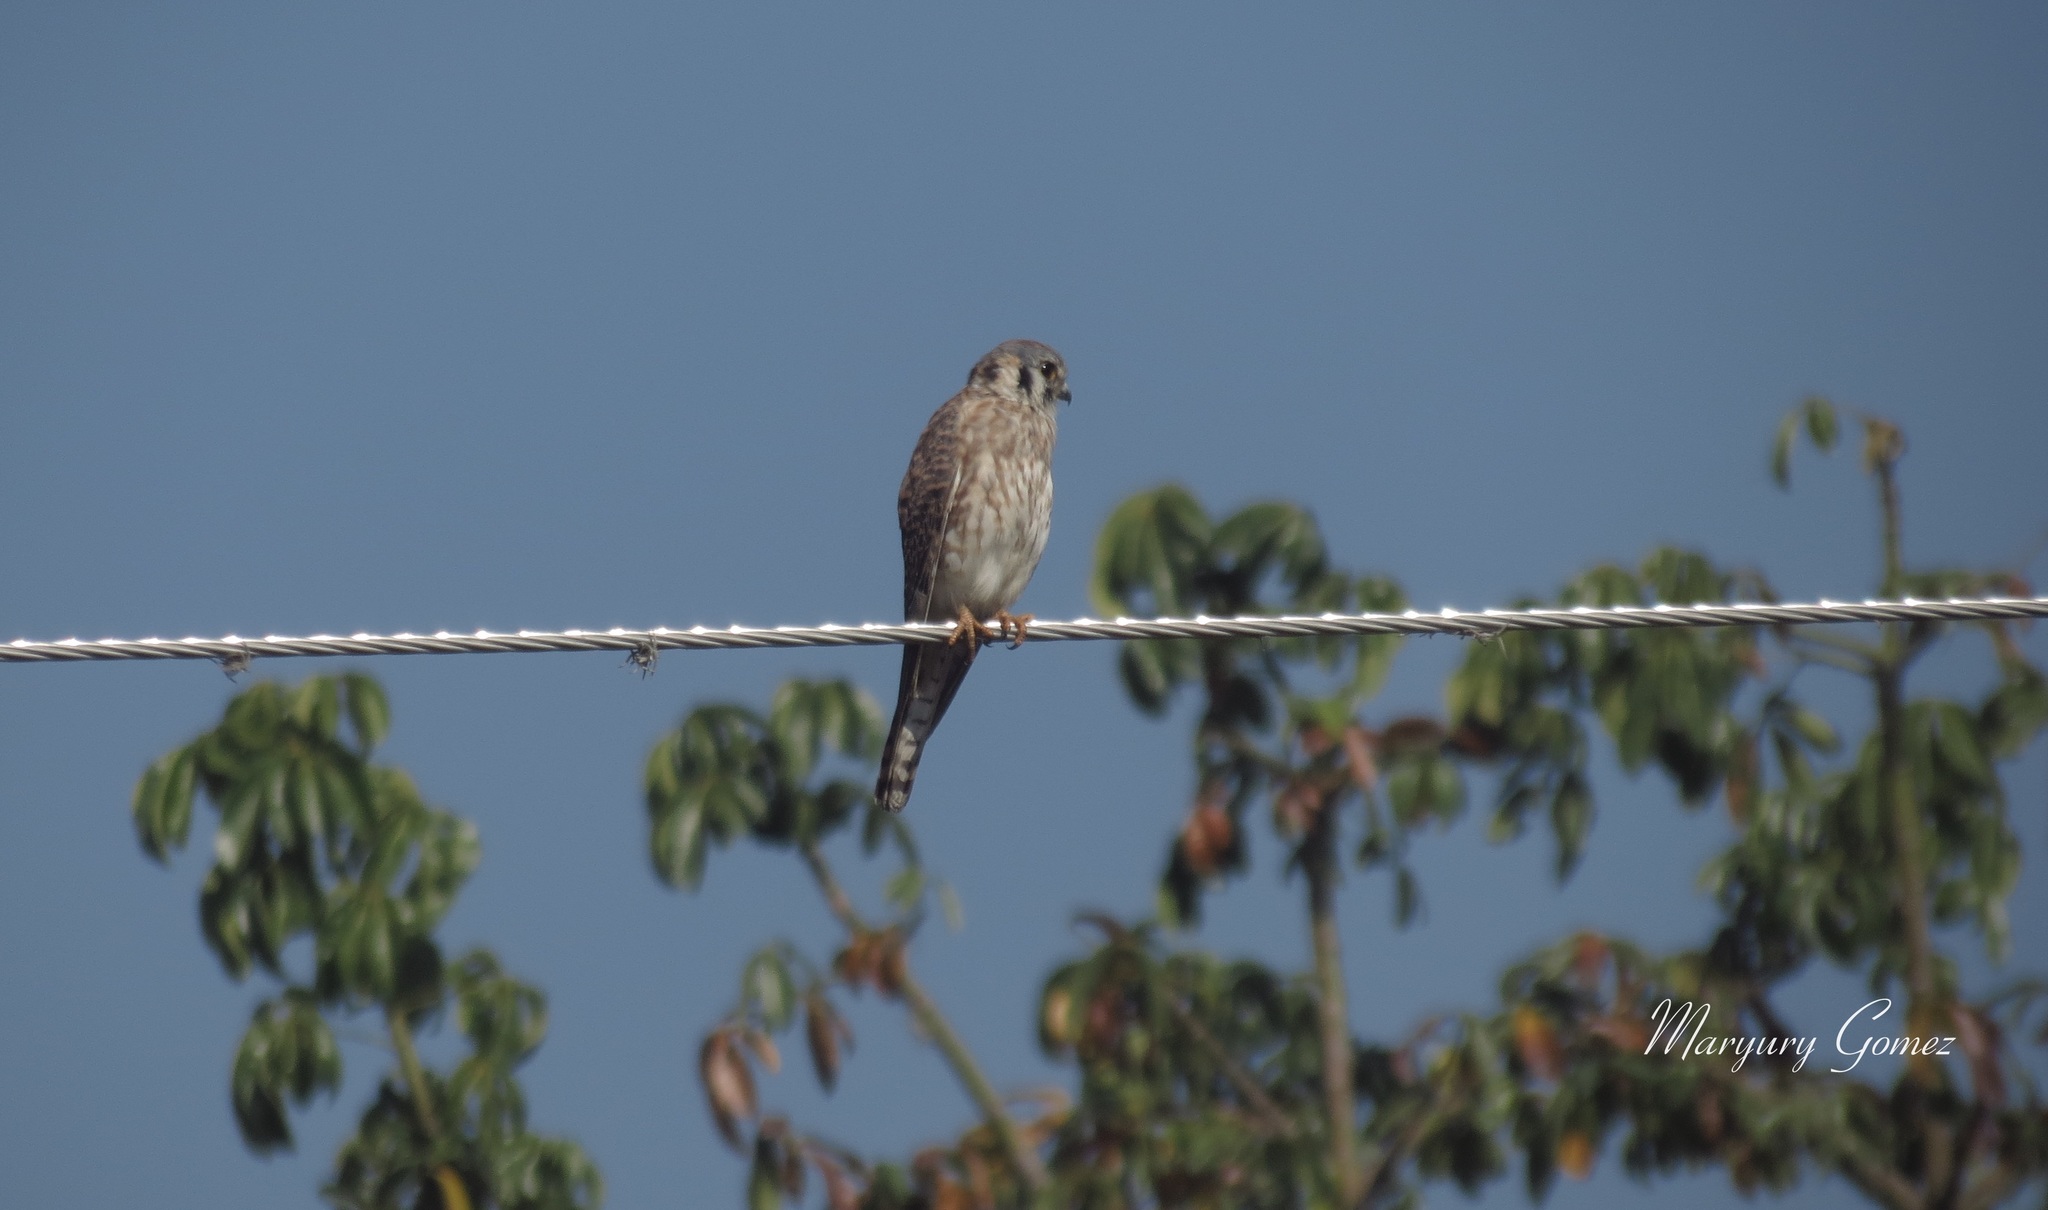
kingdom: Animalia
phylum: Chordata
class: Aves
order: Falconiformes
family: Falconidae
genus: Falco
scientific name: Falco sparverius
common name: American kestrel
